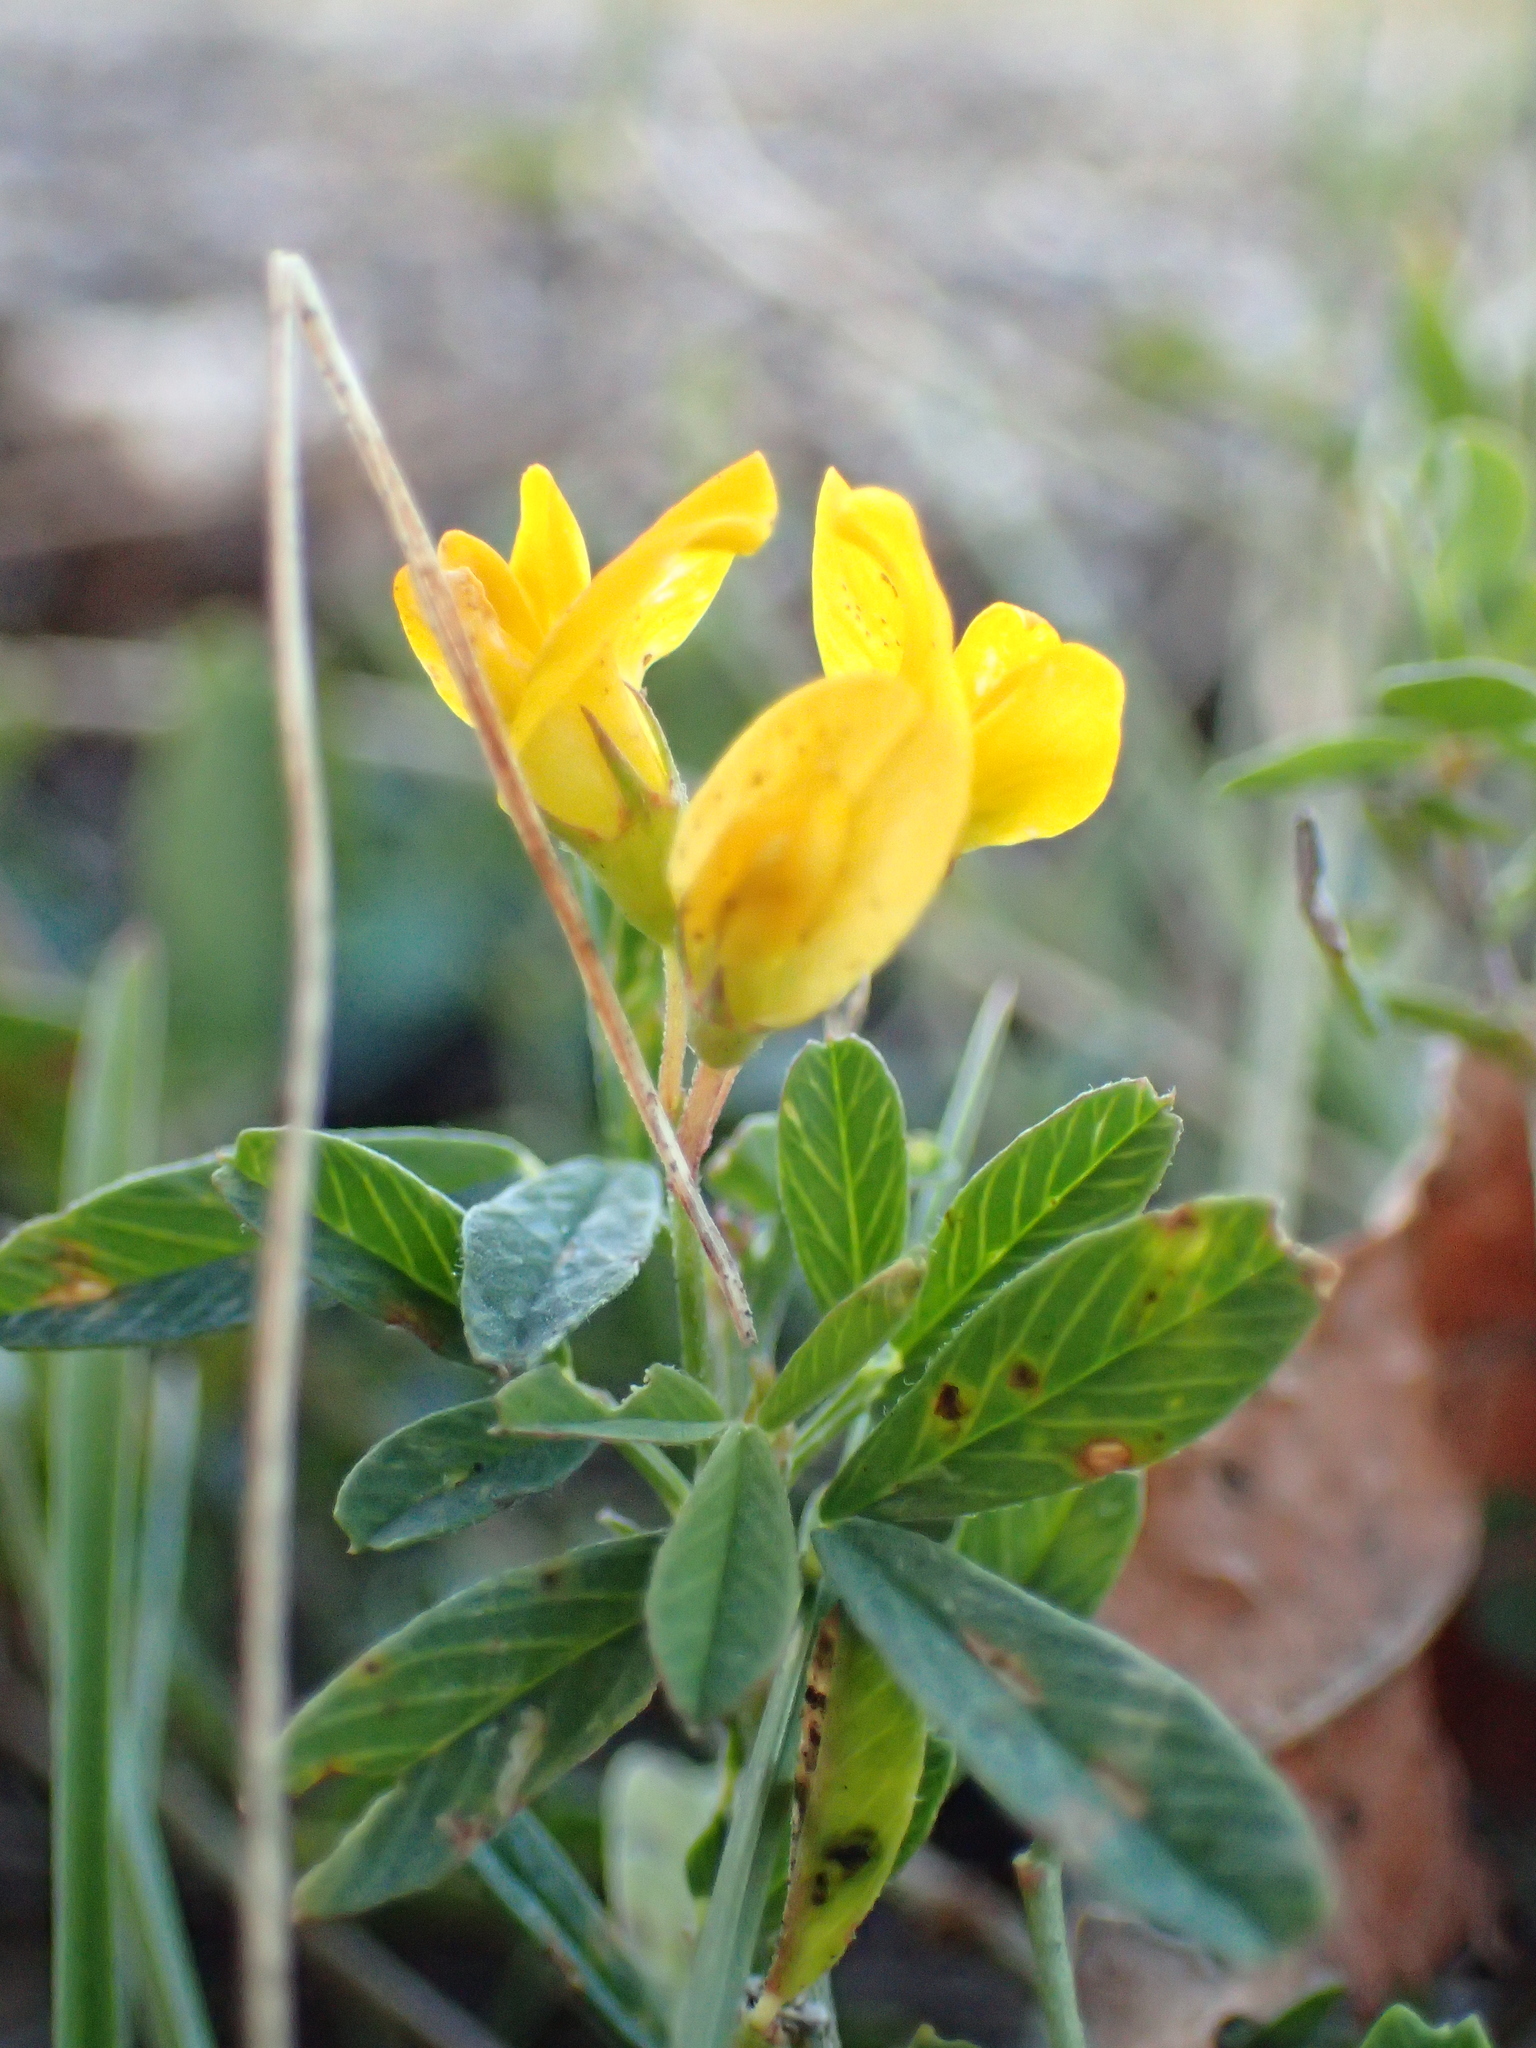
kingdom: Plantae
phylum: Tracheophyta
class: Magnoliopsida
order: Fabales
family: Fabaceae
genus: Medicago
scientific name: Medicago falcata
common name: Sickle medick
